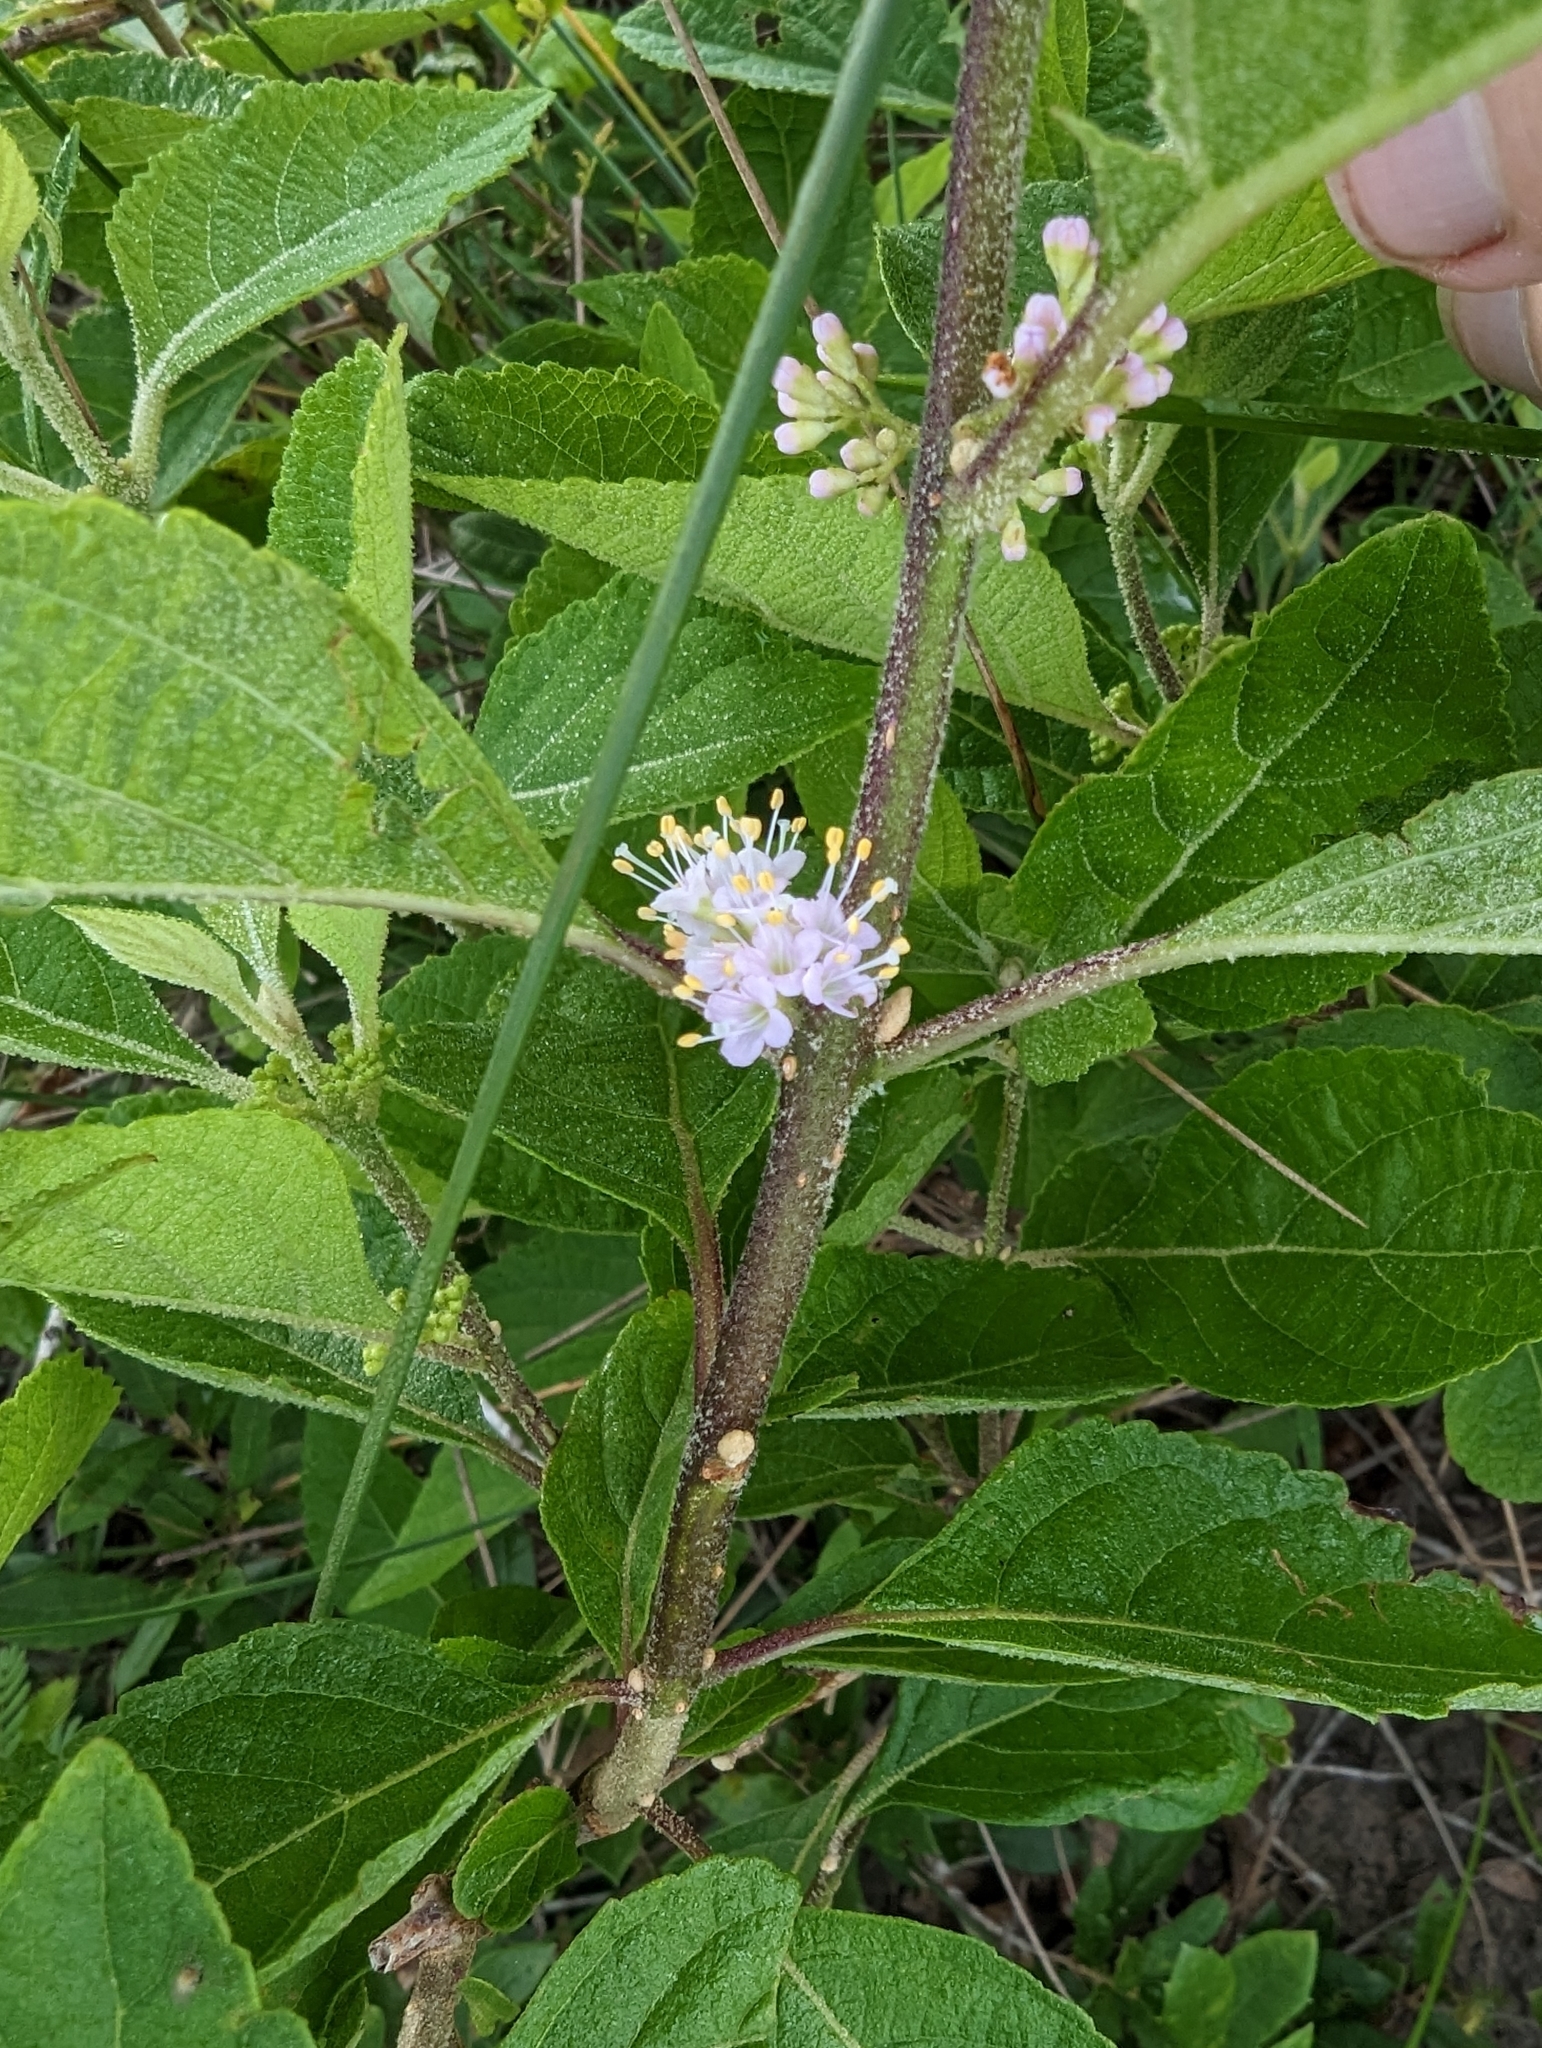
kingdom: Plantae
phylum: Tracheophyta
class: Magnoliopsida
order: Lamiales
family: Lamiaceae
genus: Callicarpa
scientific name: Callicarpa americana
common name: American beautyberry
